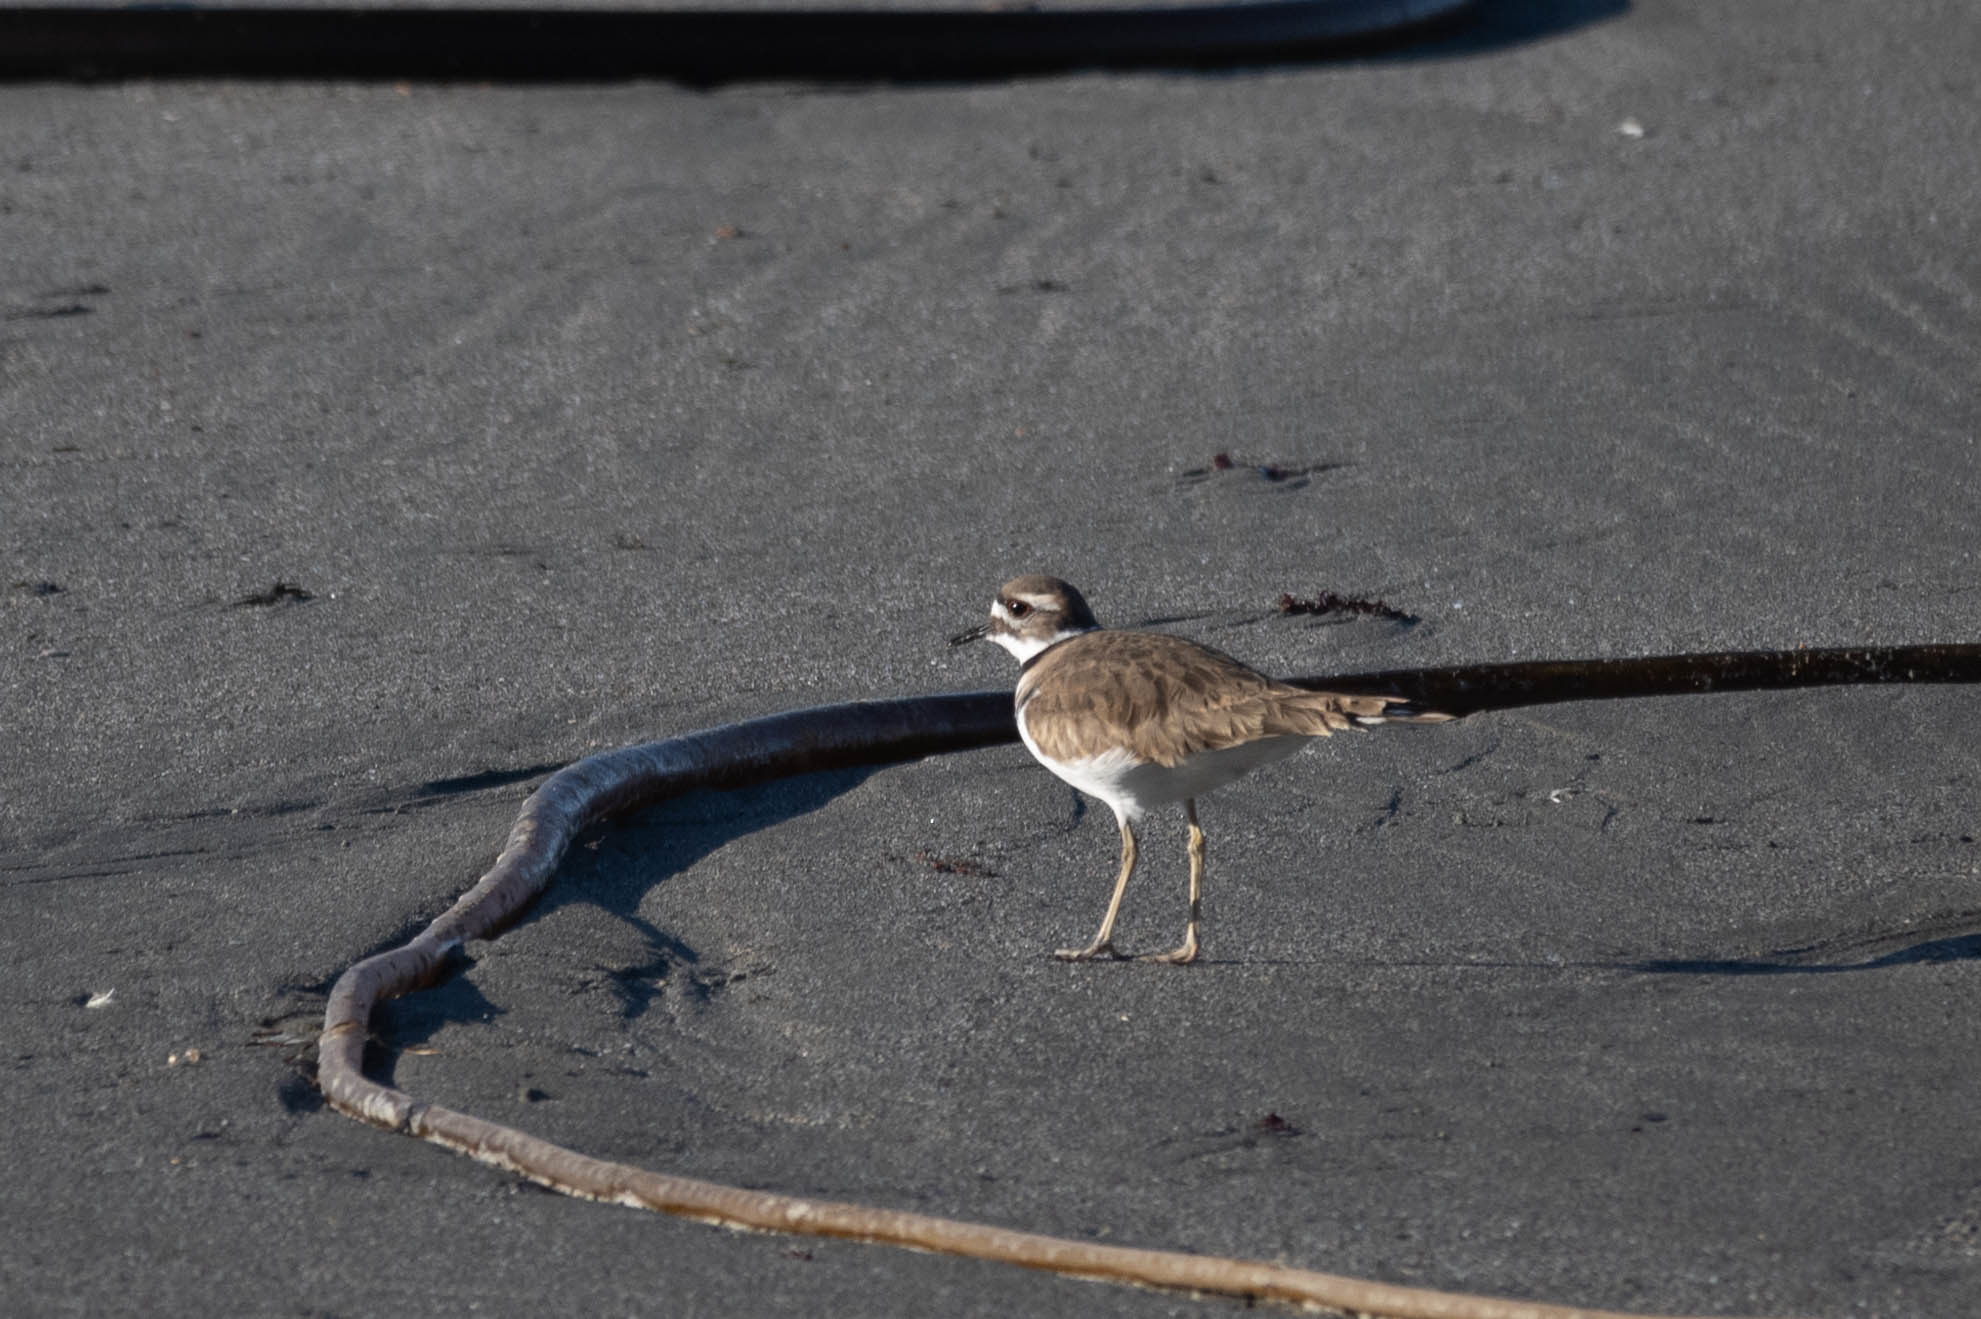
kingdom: Animalia
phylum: Chordata
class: Aves
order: Charadriiformes
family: Charadriidae
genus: Charadrius
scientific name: Charadrius vociferus
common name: Killdeer
